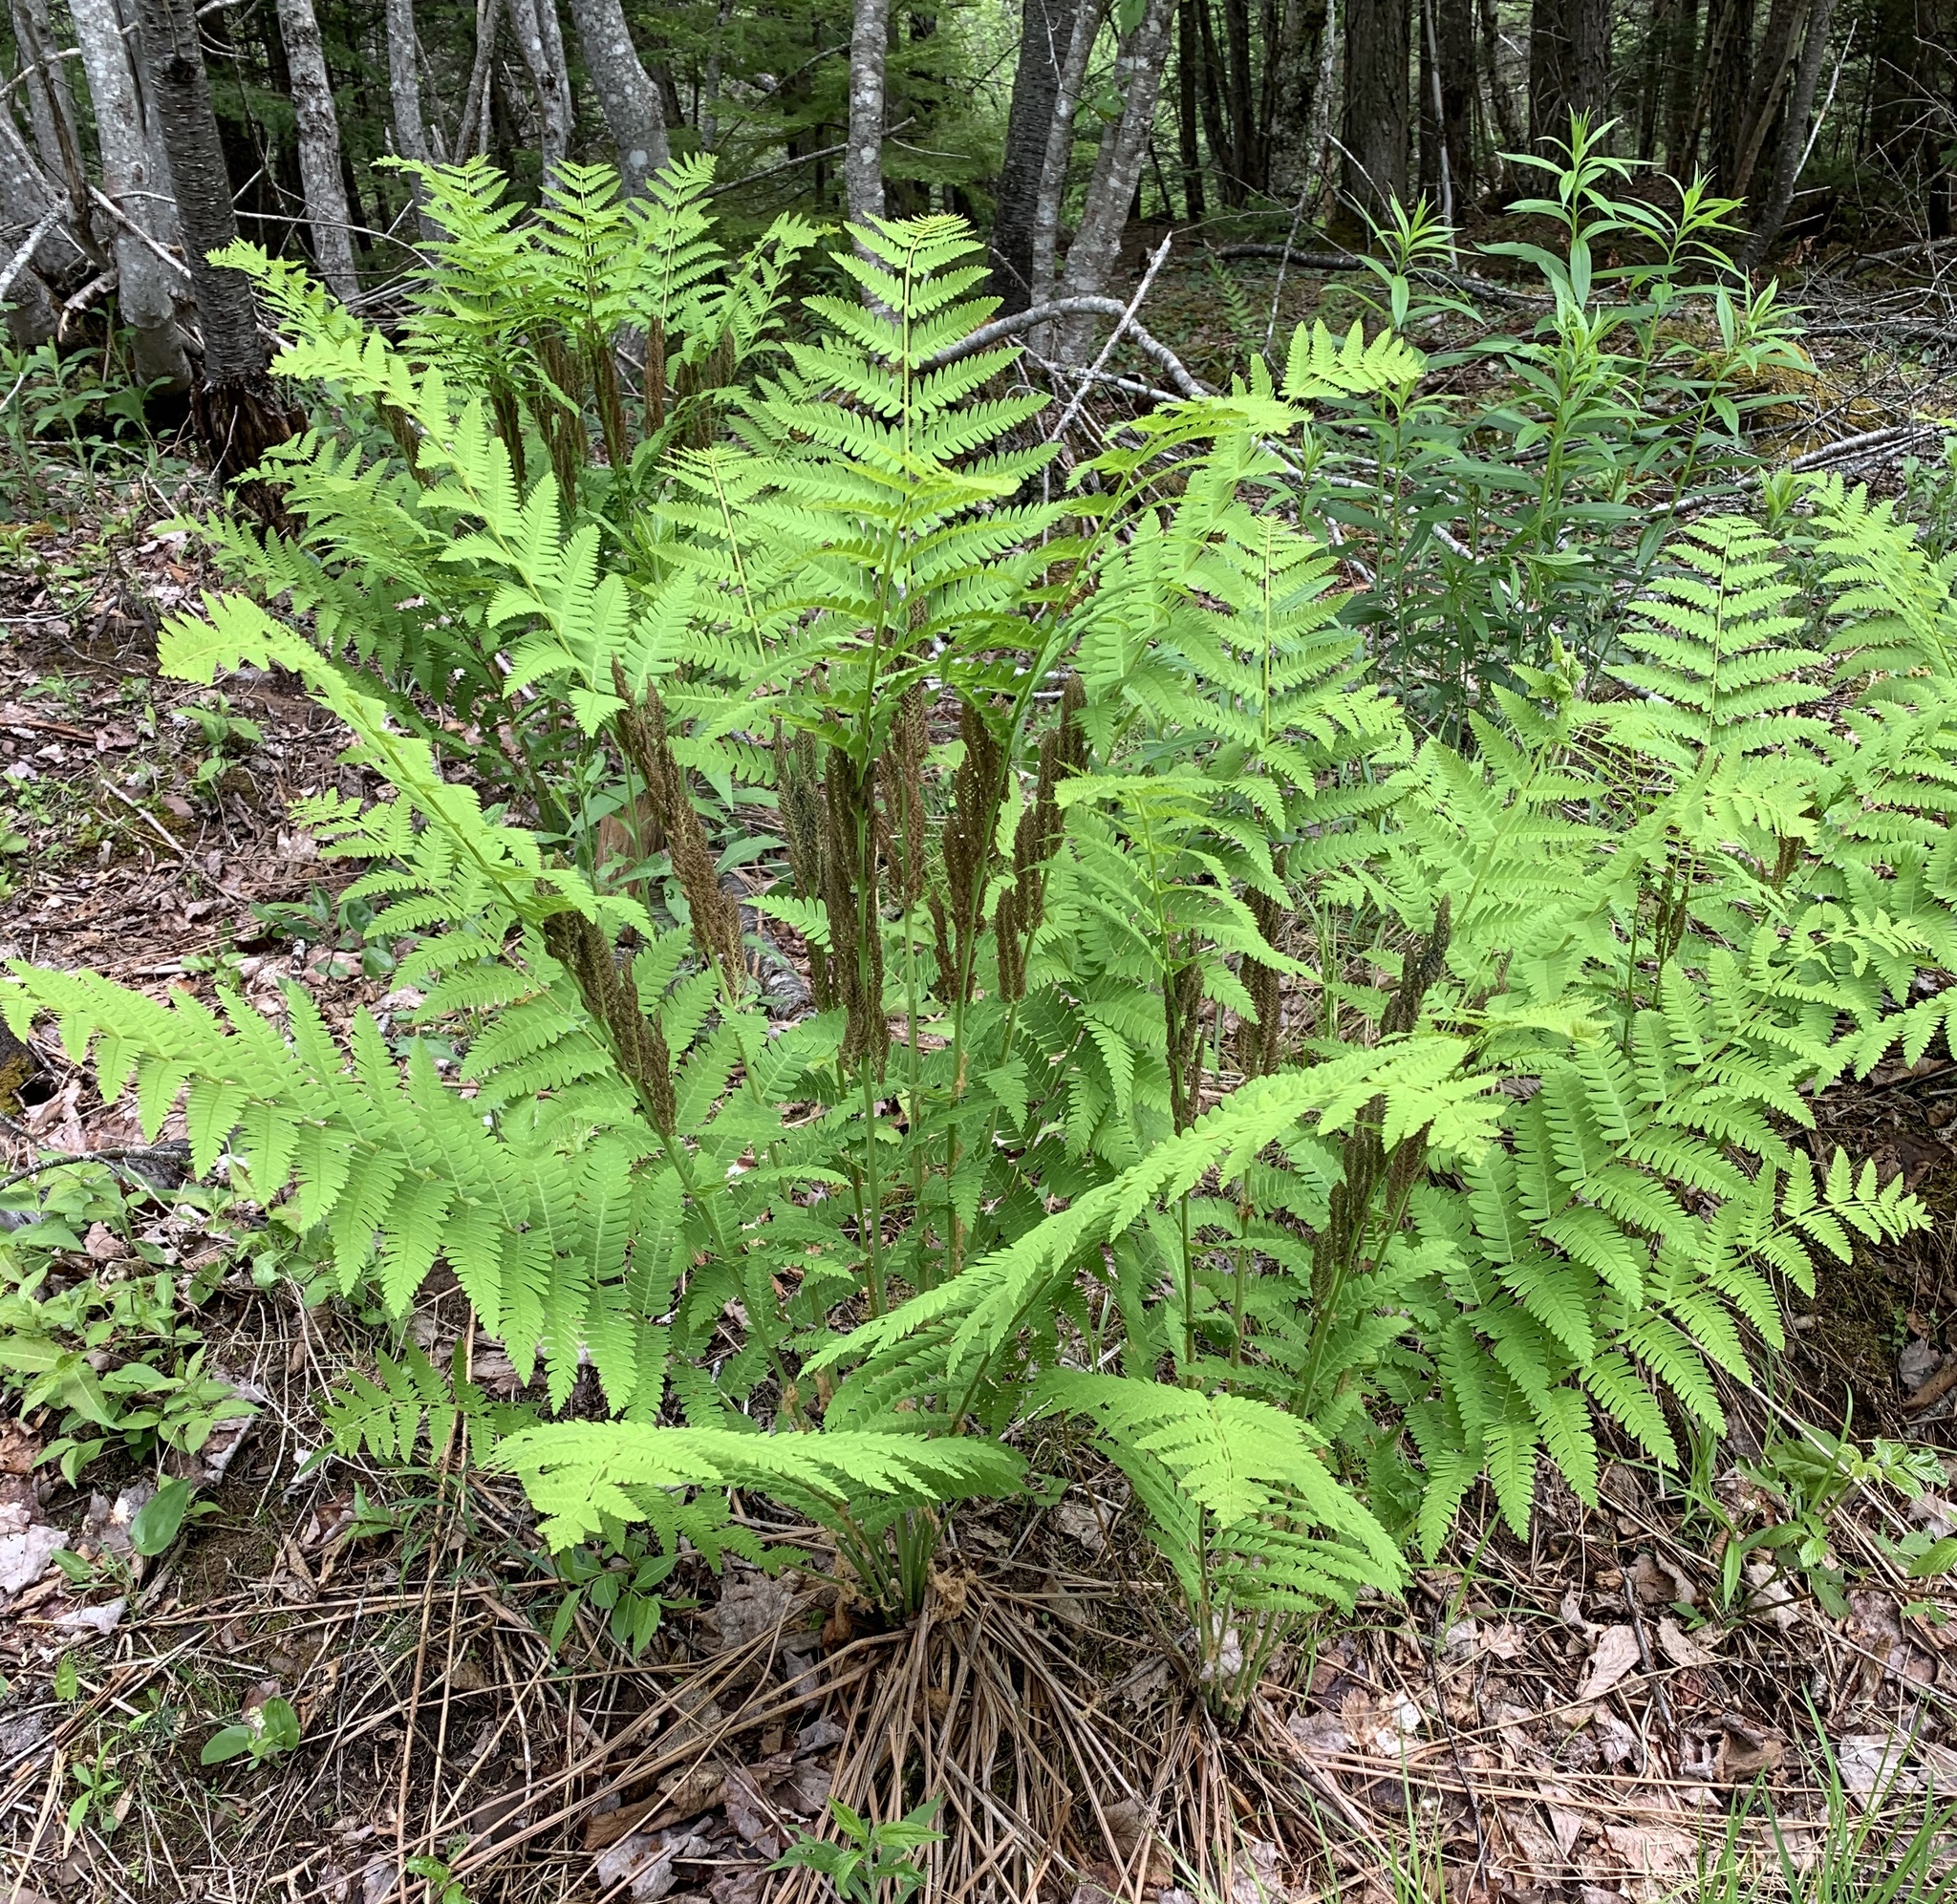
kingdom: Plantae
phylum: Tracheophyta
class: Polypodiopsida
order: Osmundales
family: Osmundaceae
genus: Claytosmunda
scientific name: Claytosmunda claytoniana
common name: Clayton's fern
